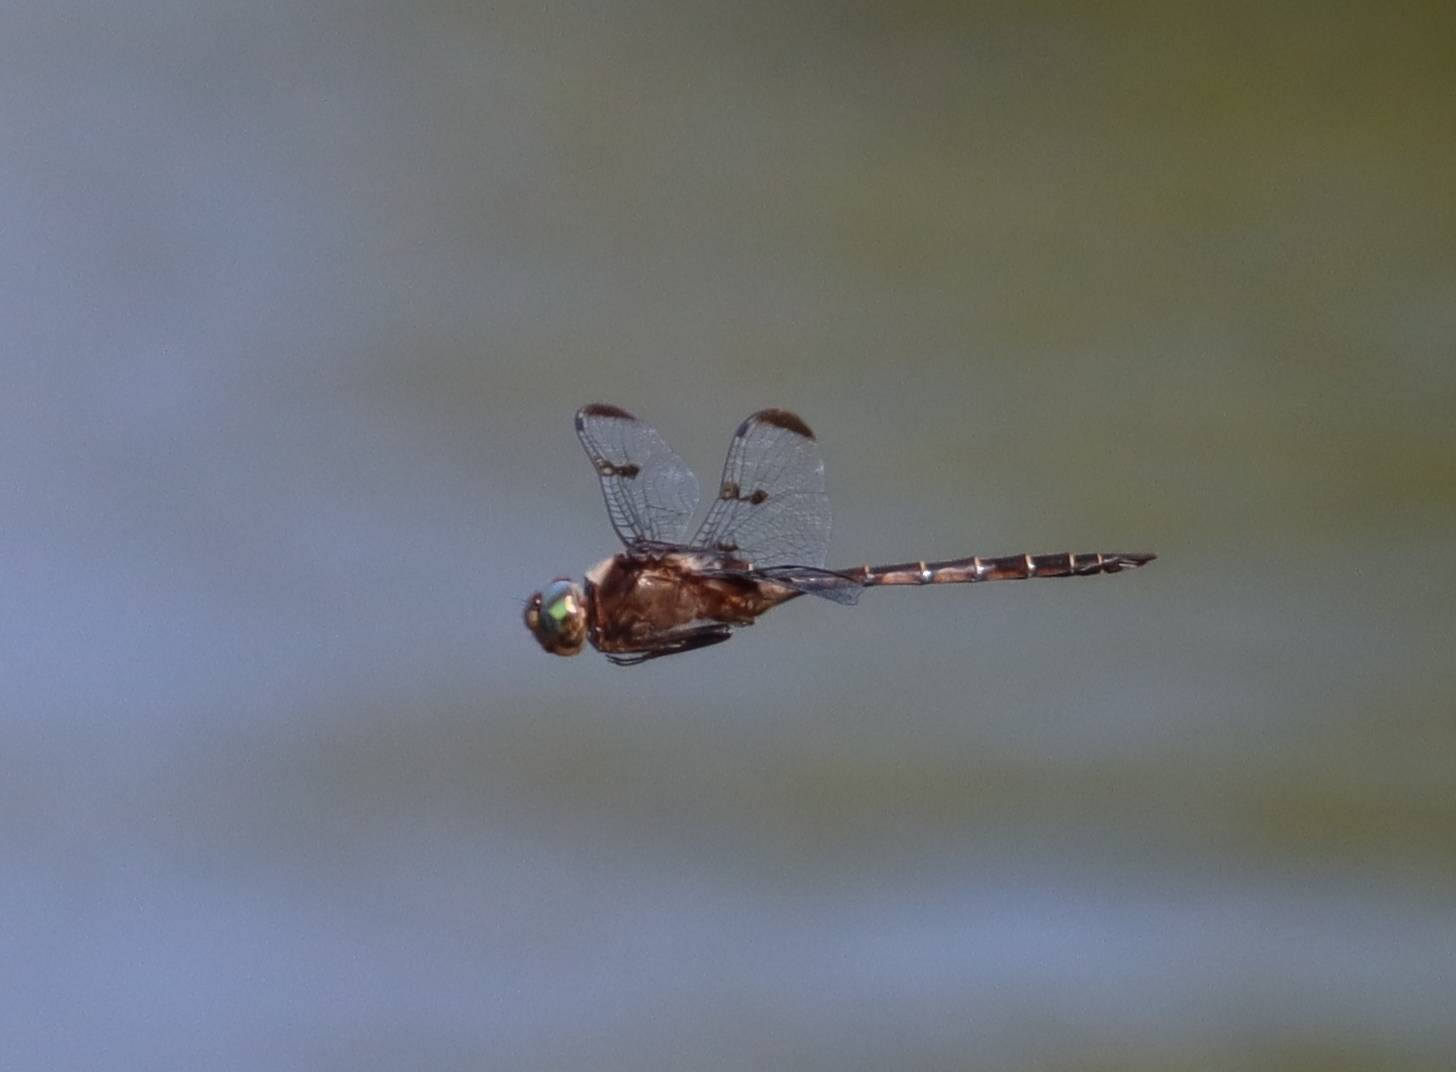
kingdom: Animalia
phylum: Arthropoda
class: Insecta
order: Odonata
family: Corduliidae
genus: Epitheca
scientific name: Epitheca princeps
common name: Prince baskettail
